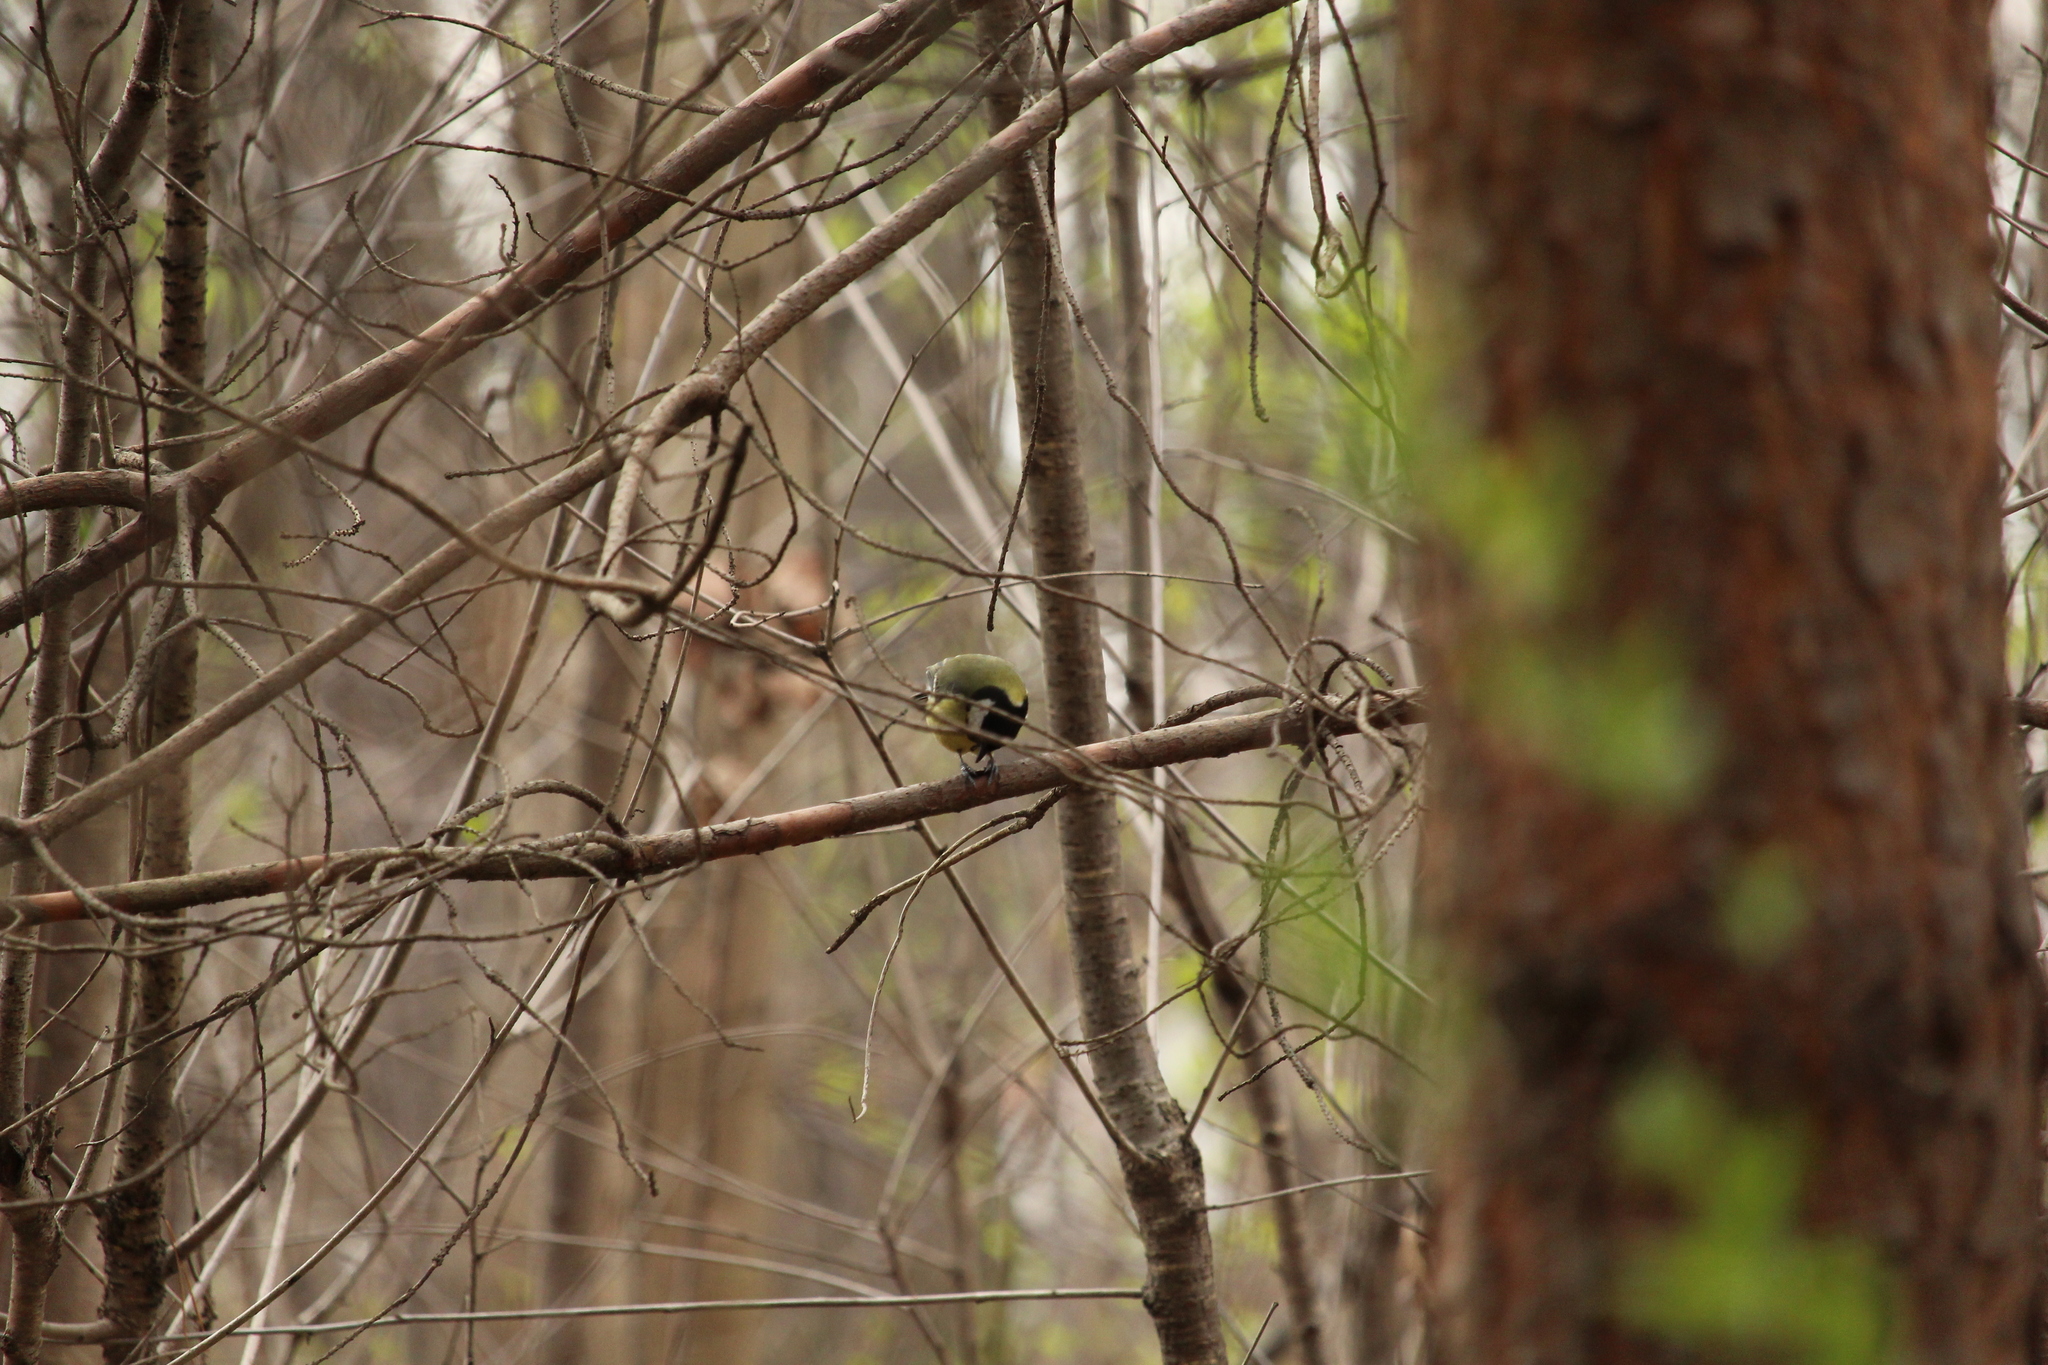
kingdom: Animalia
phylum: Chordata
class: Aves
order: Passeriformes
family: Paridae
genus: Parus
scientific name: Parus major
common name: Great tit
